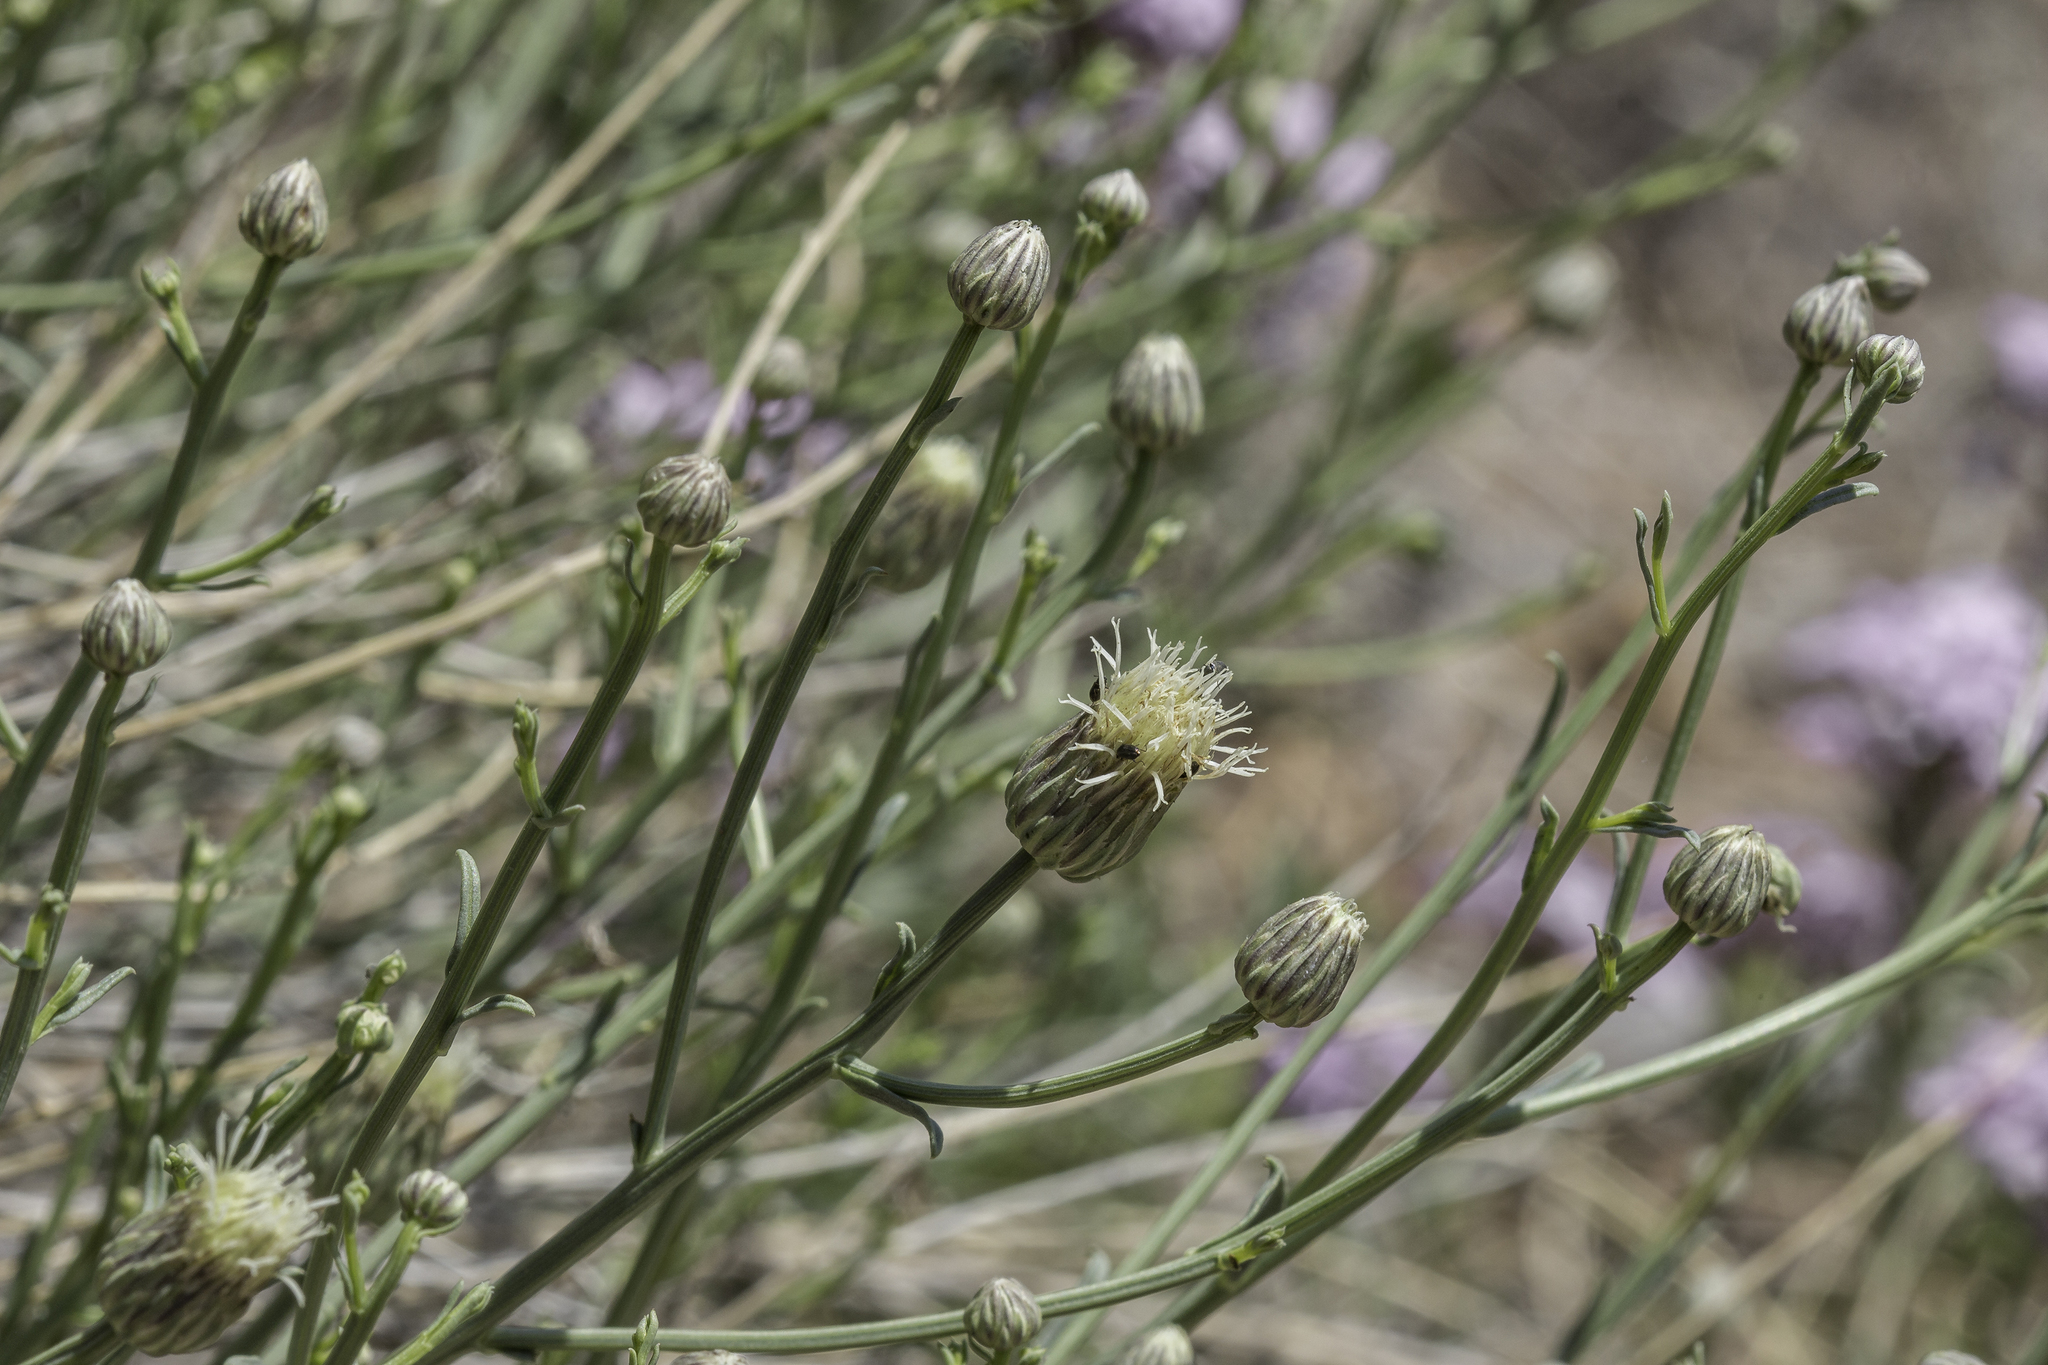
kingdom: Plantae
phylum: Tracheophyta
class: Magnoliopsida
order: Asterales
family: Asteraceae
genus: Baccharis
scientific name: Baccharis wrightii
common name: Wright's baccharis
